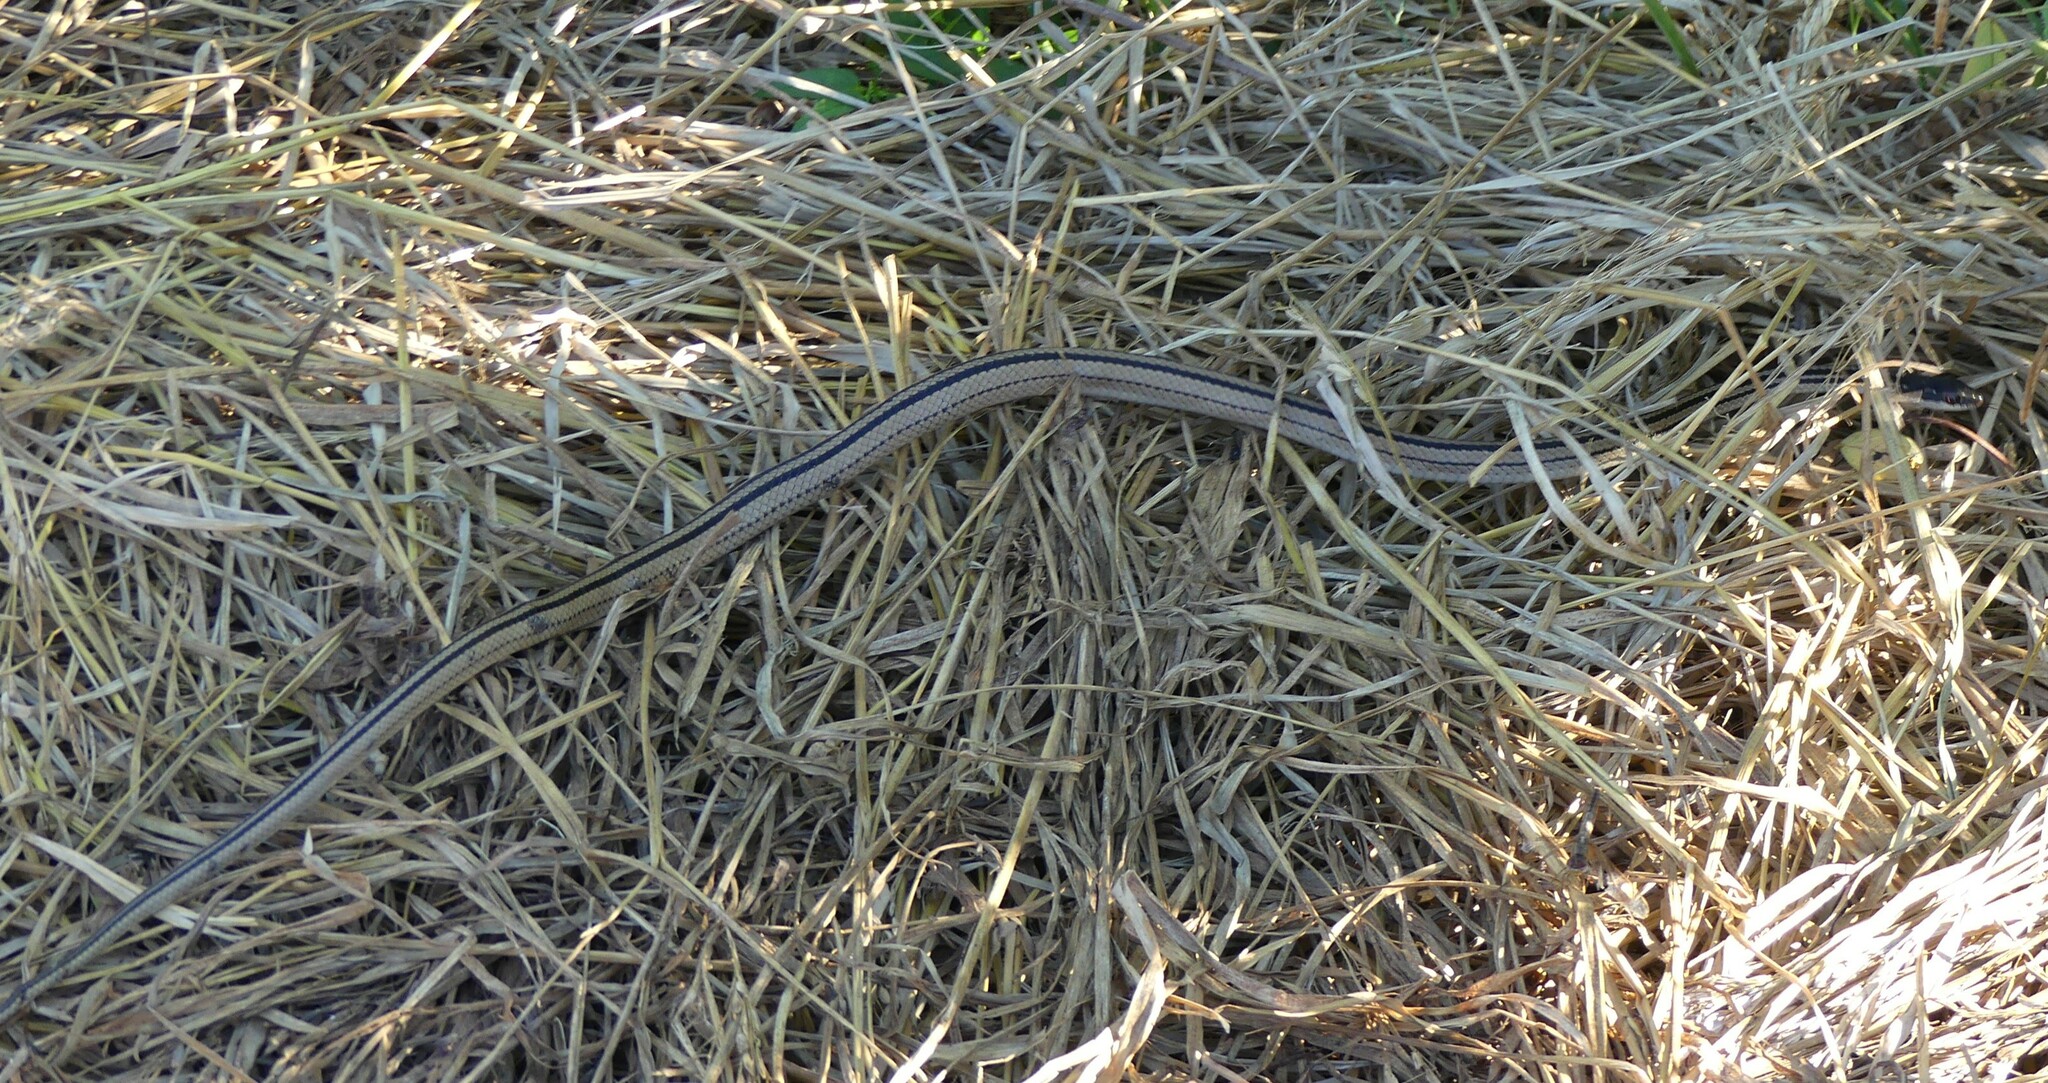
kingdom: Animalia
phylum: Chordata
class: Squamata
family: Pseudoxyrhophiidae
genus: Dromicodryas
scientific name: Dromicodryas quadrilineatus
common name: Four-striped snake
